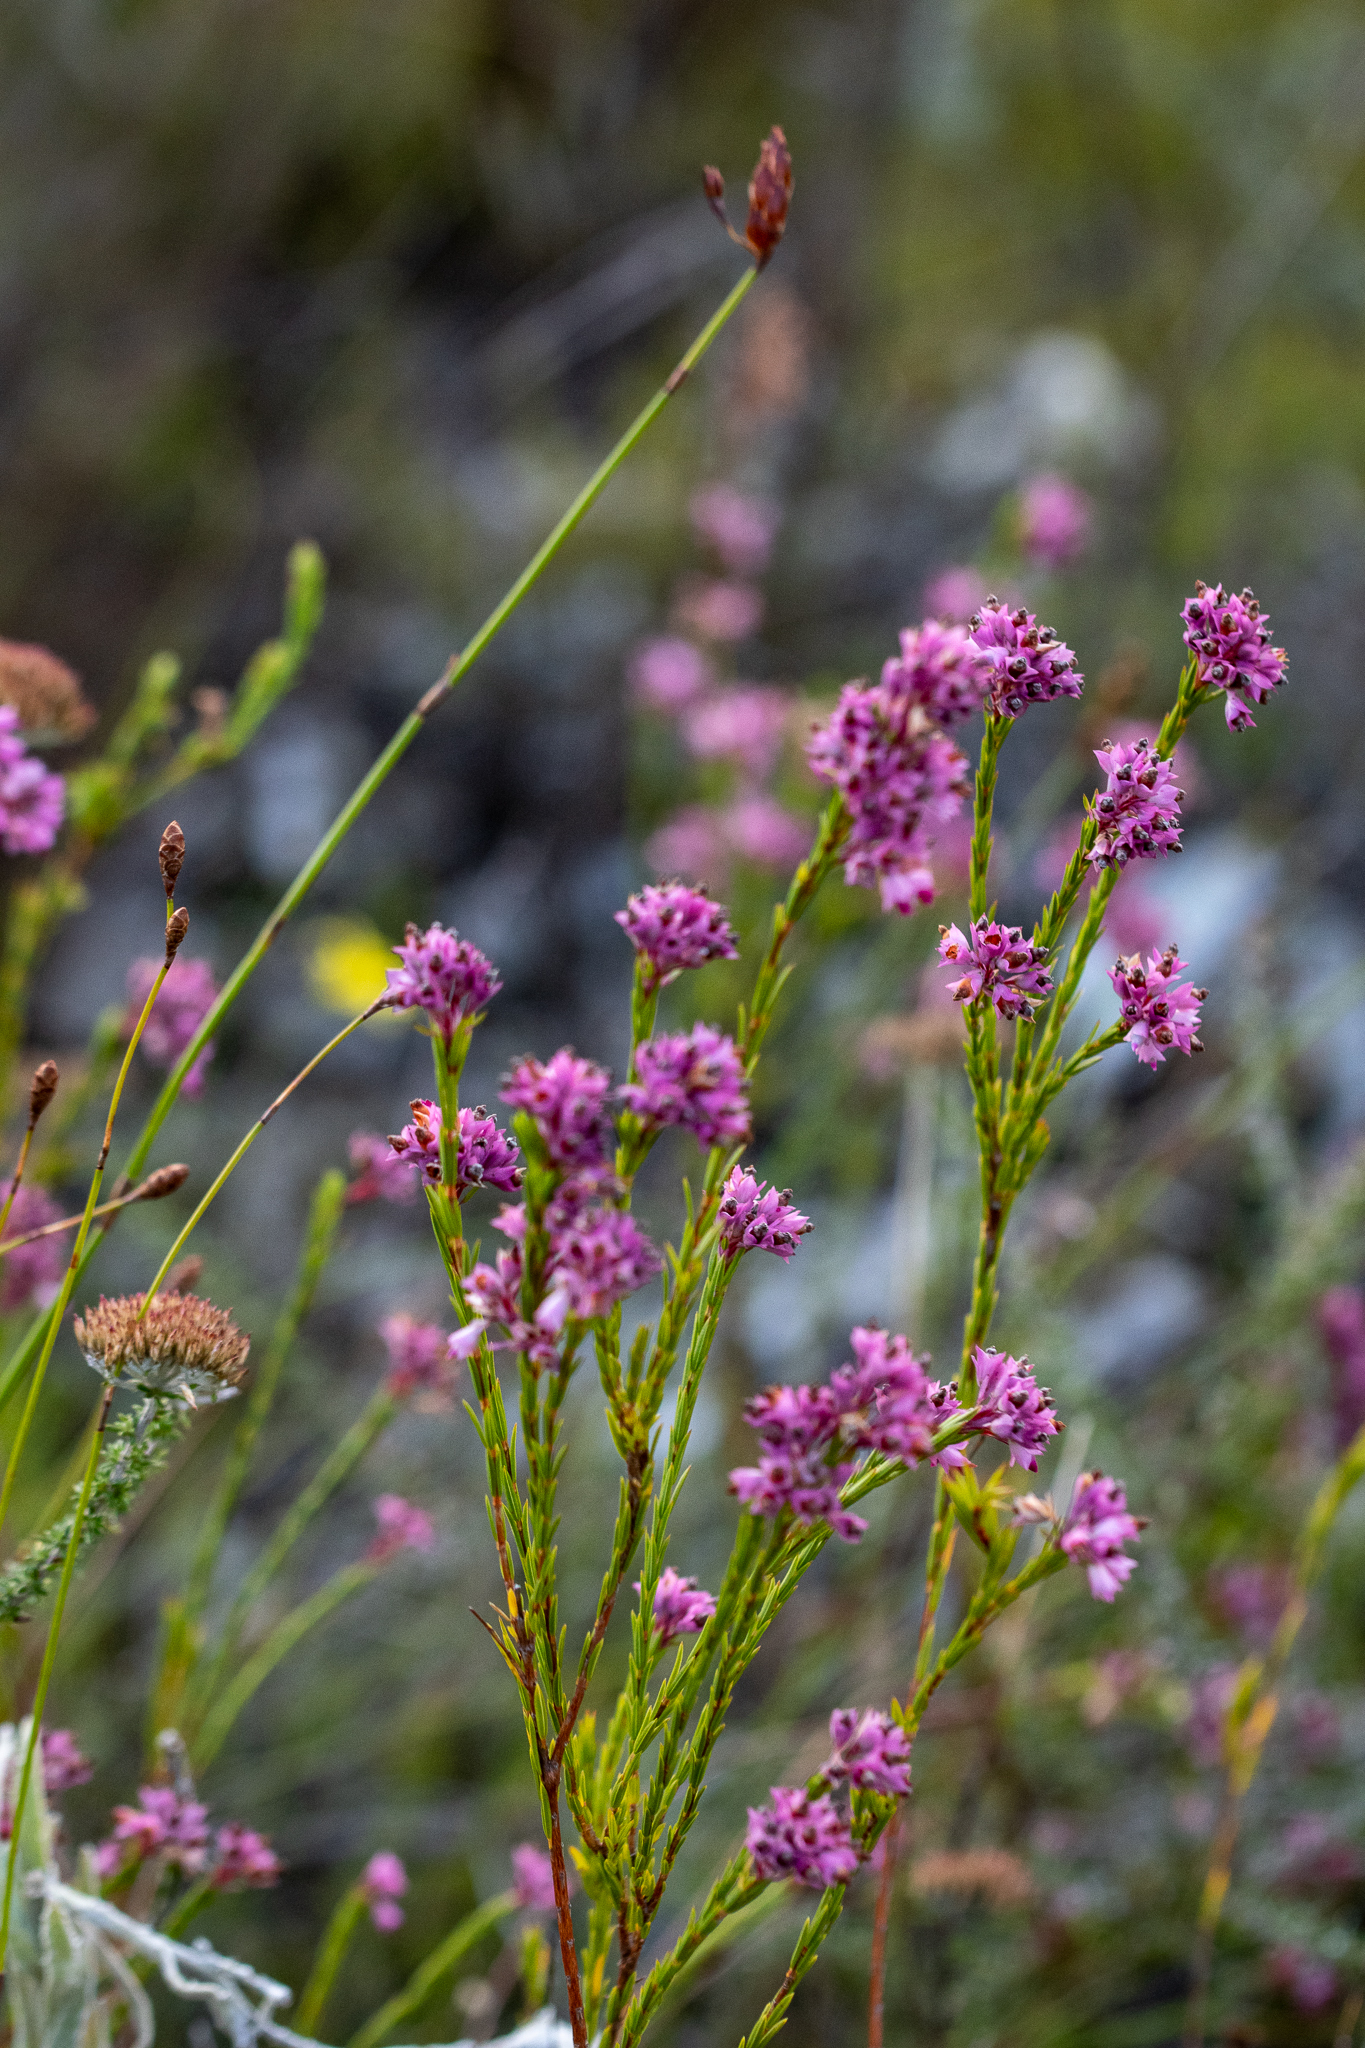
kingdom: Plantae
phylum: Tracheophyta
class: Magnoliopsida
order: Ericales
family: Ericaceae
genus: Erica
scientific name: Erica corifolia
